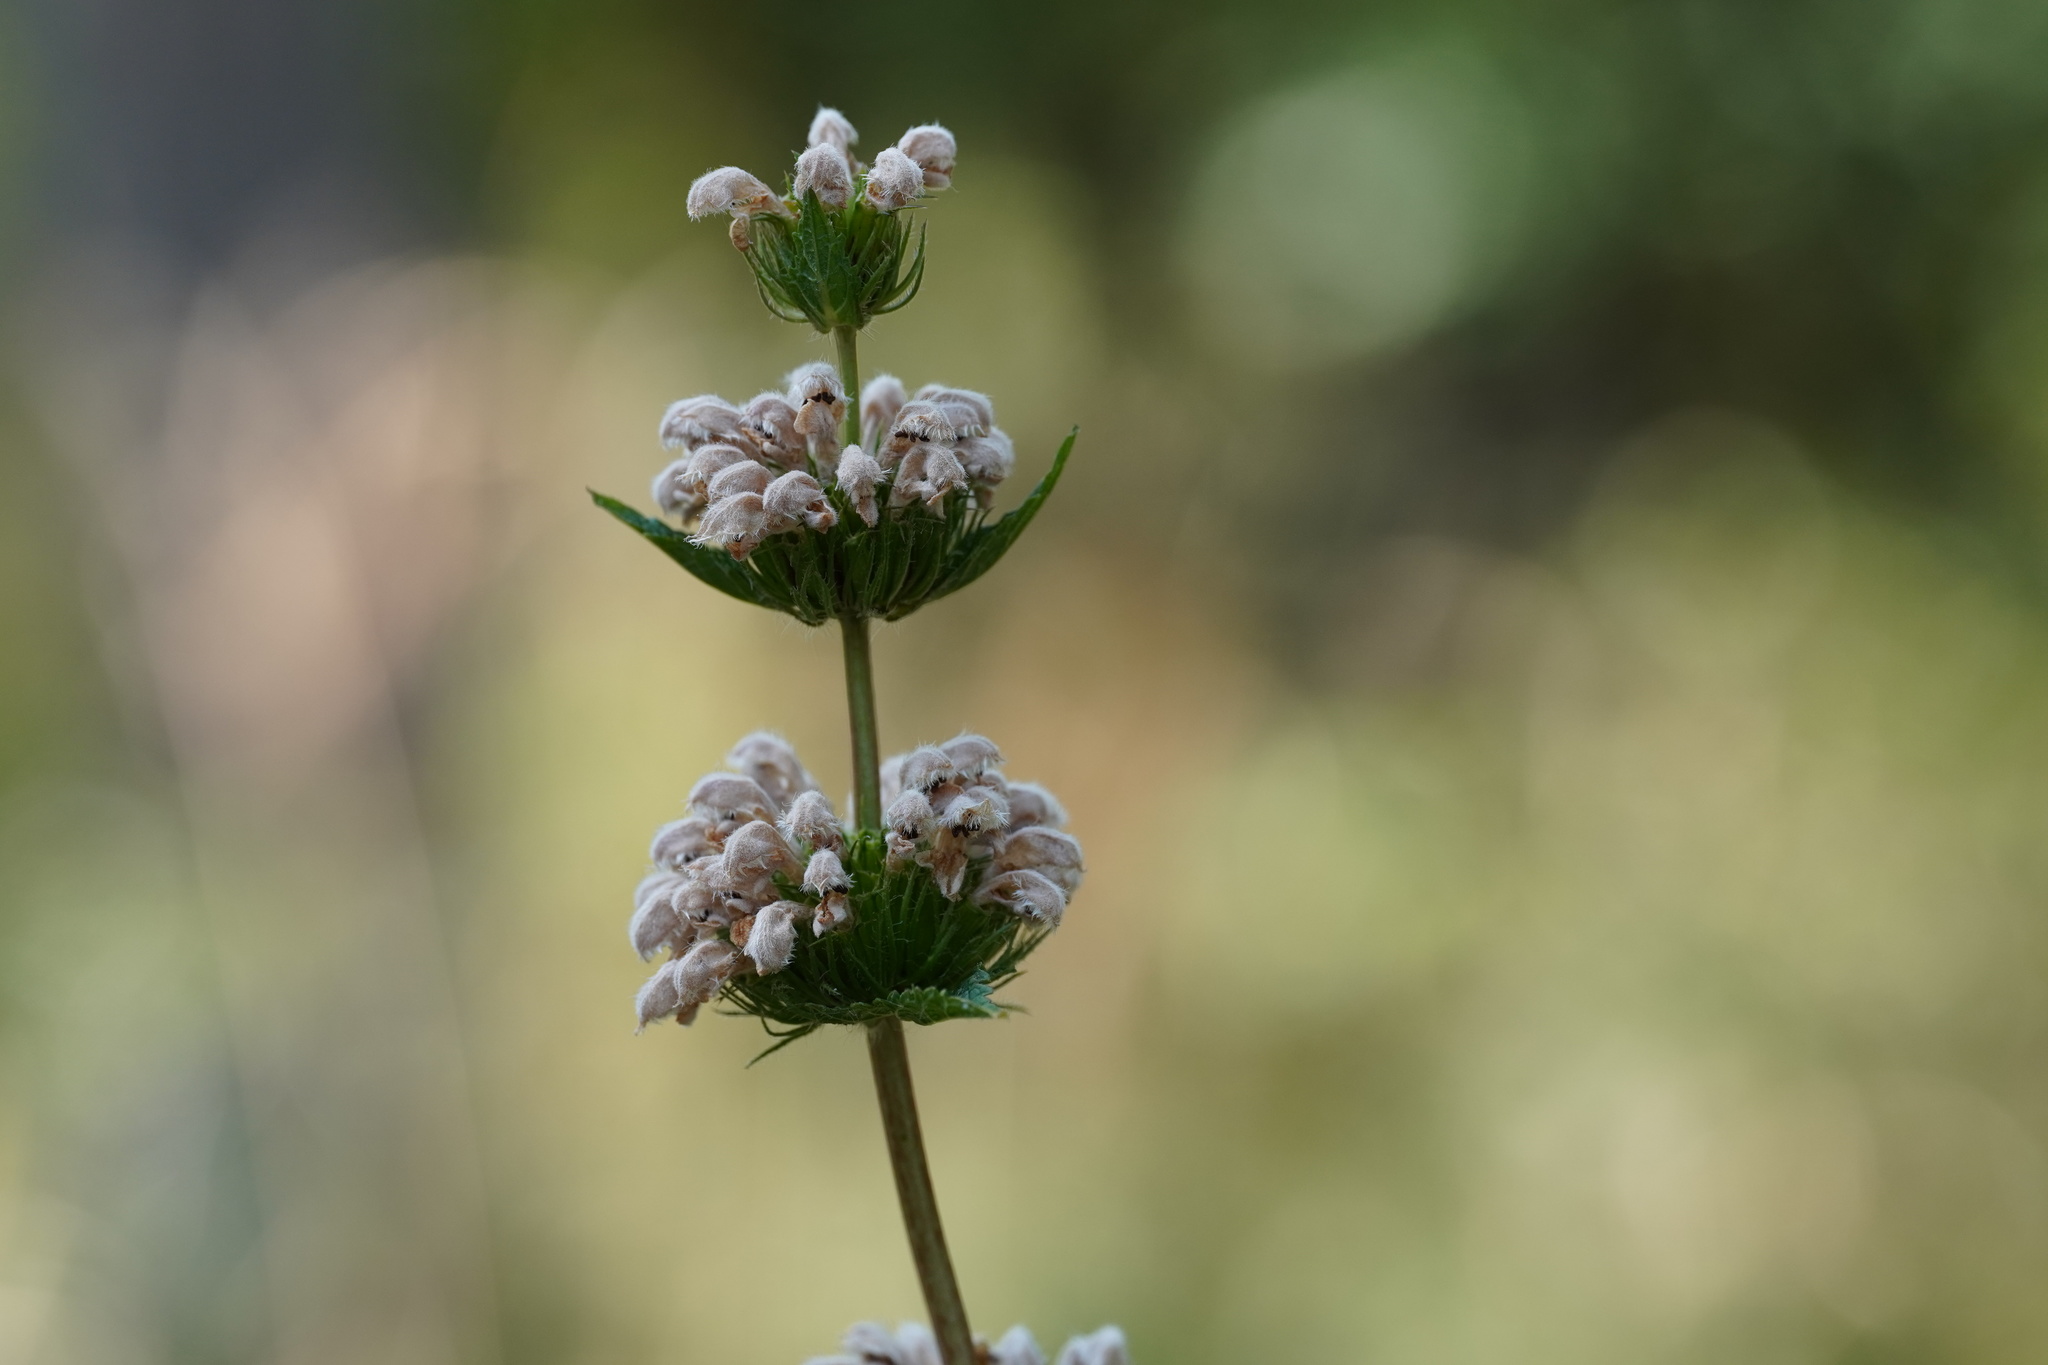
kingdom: Plantae
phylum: Tracheophyta
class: Magnoliopsida
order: Lamiales
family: Lamiaceae
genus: Phlomoides
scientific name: Phlomoides tuberosa
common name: Tuberous jerusalem sage
